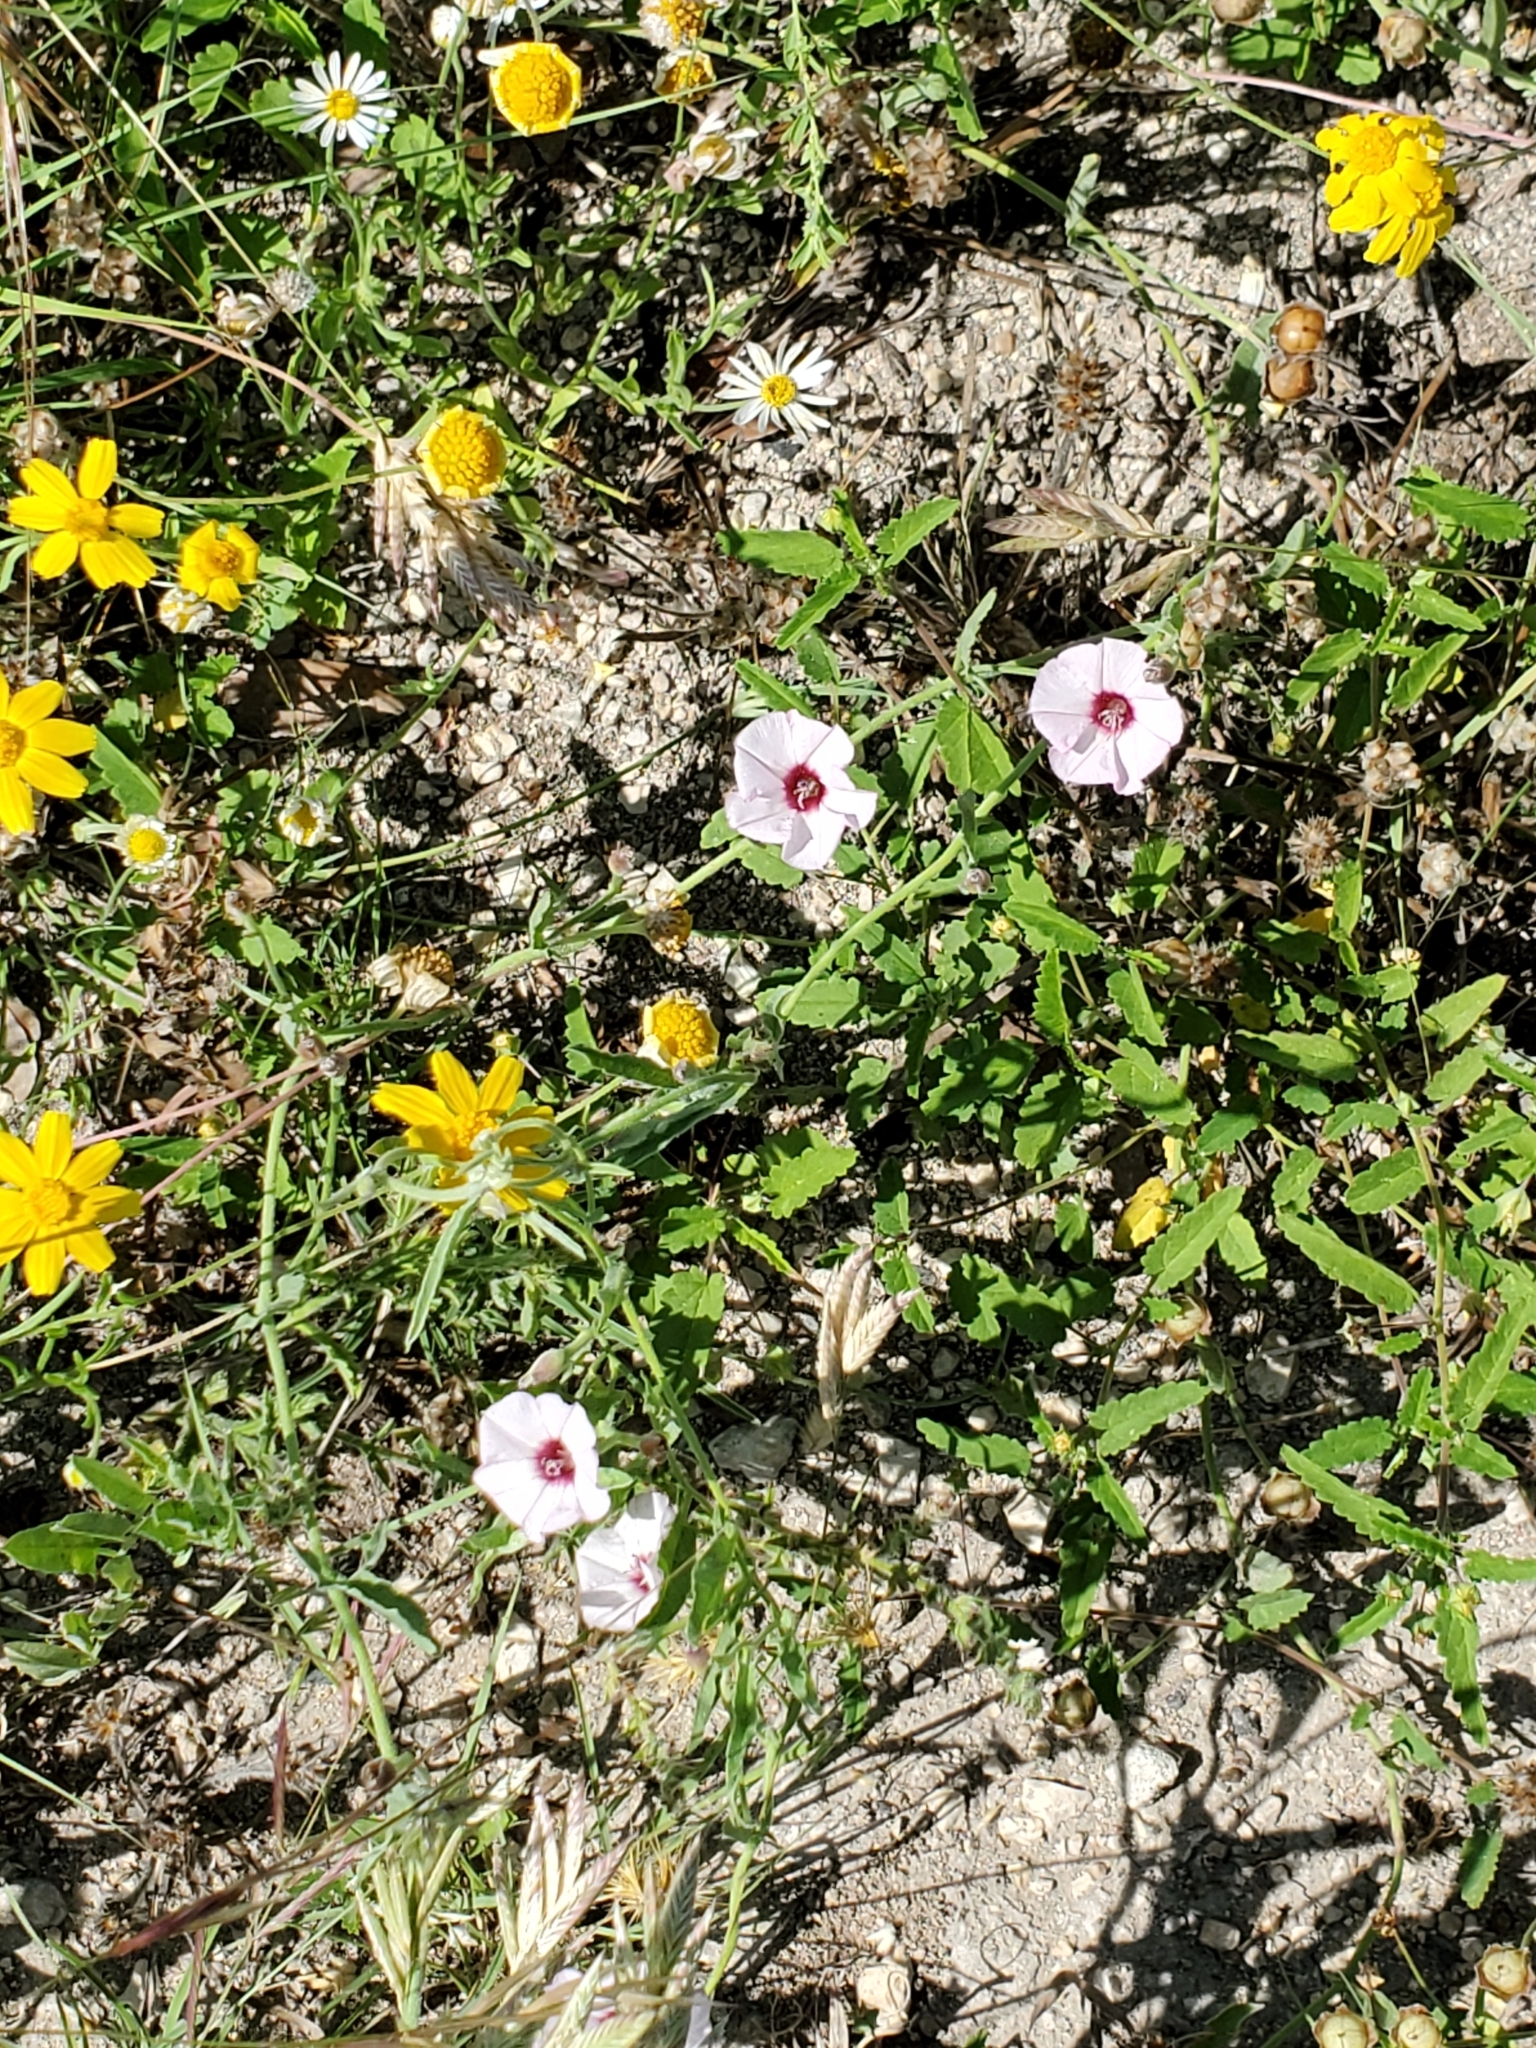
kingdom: Plantae
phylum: Tracheophyta
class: Magnoliopsida
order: Solanales
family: Convolvulaceae
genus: Convolvulus
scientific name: Convolvulus equitans
